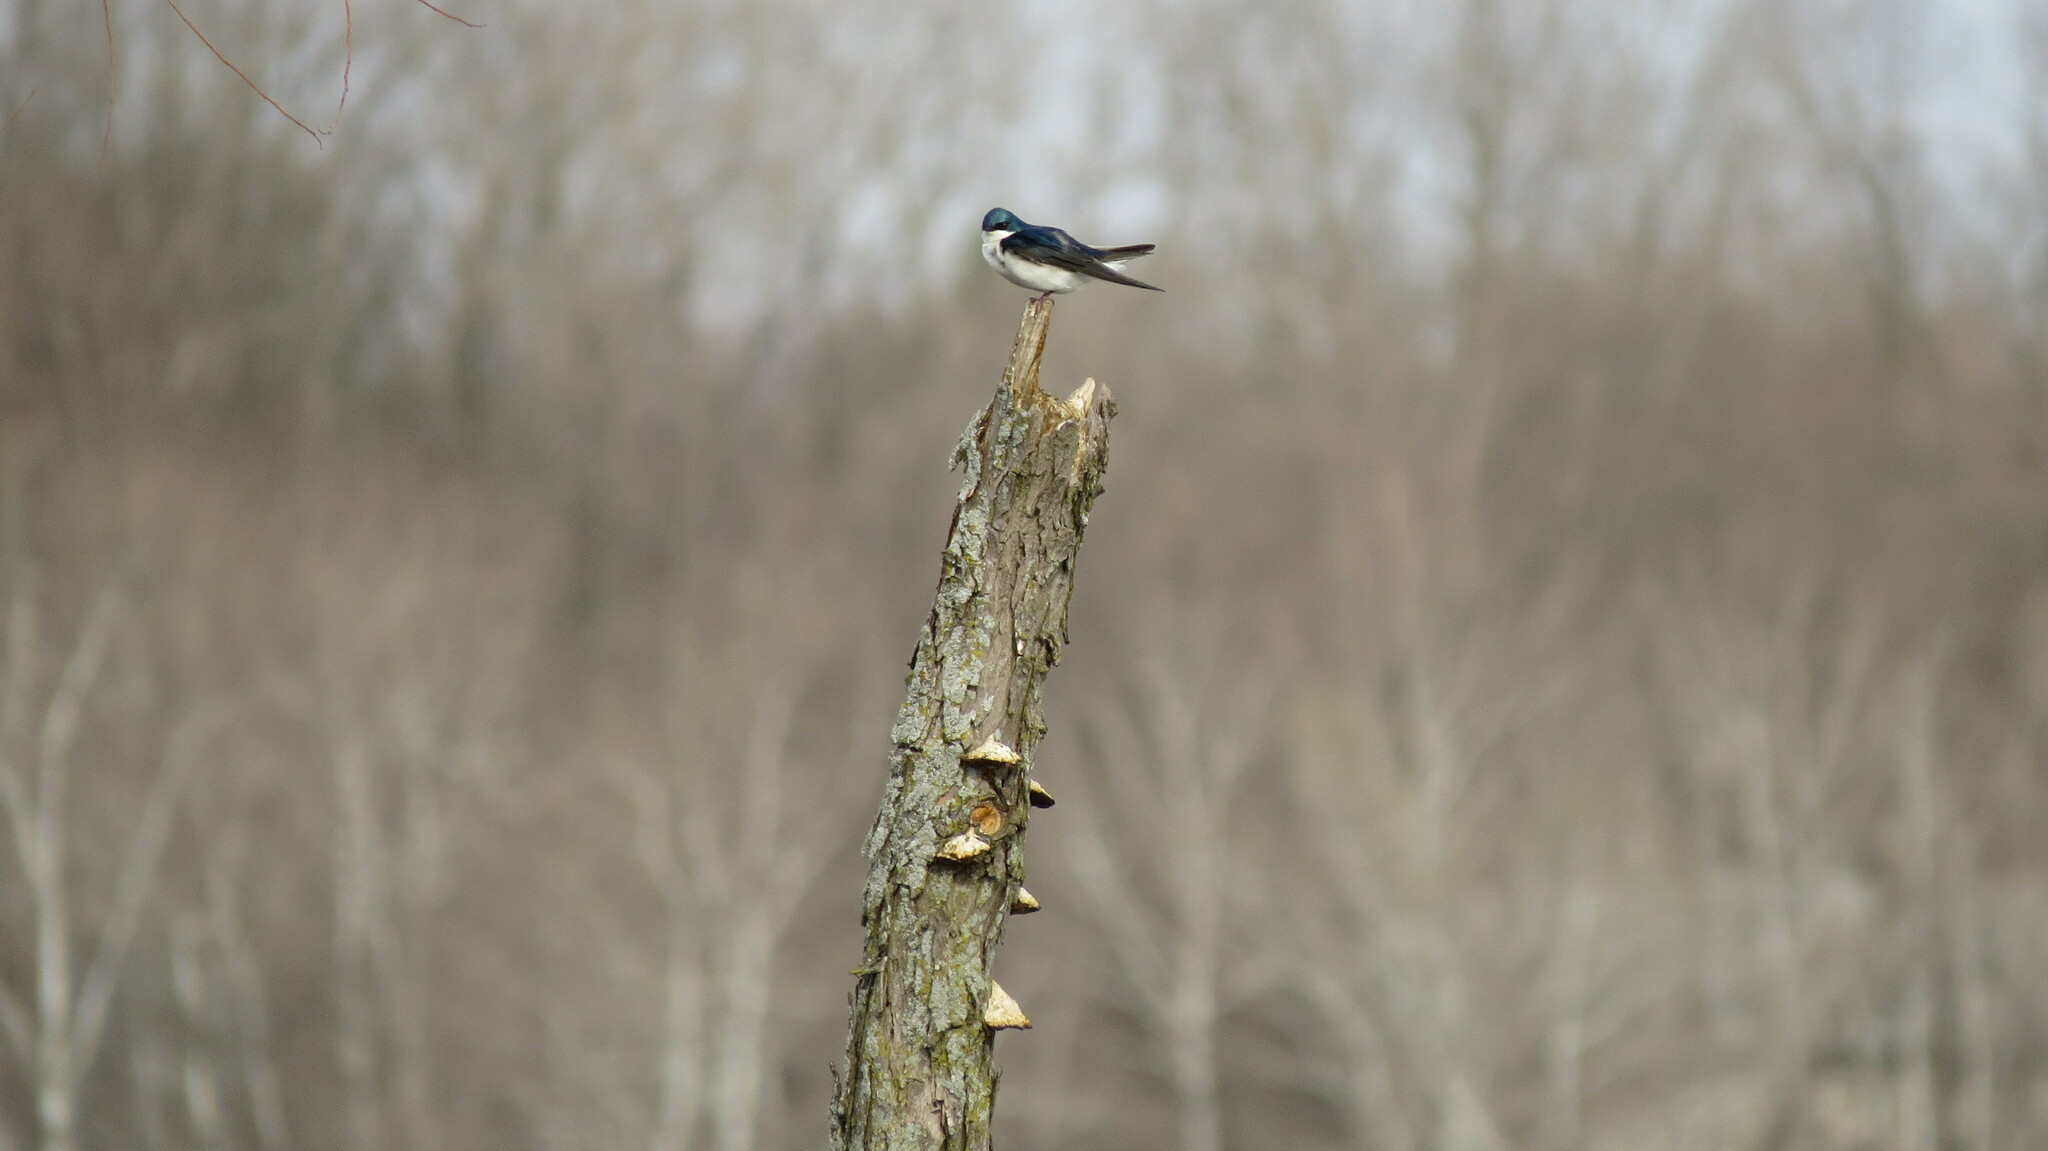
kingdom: Animalia
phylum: Chordata
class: Aves
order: Passeriformes
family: Hirundinidae
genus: Tachycineta
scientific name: Tachycineta bicolor
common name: Tree swallow
